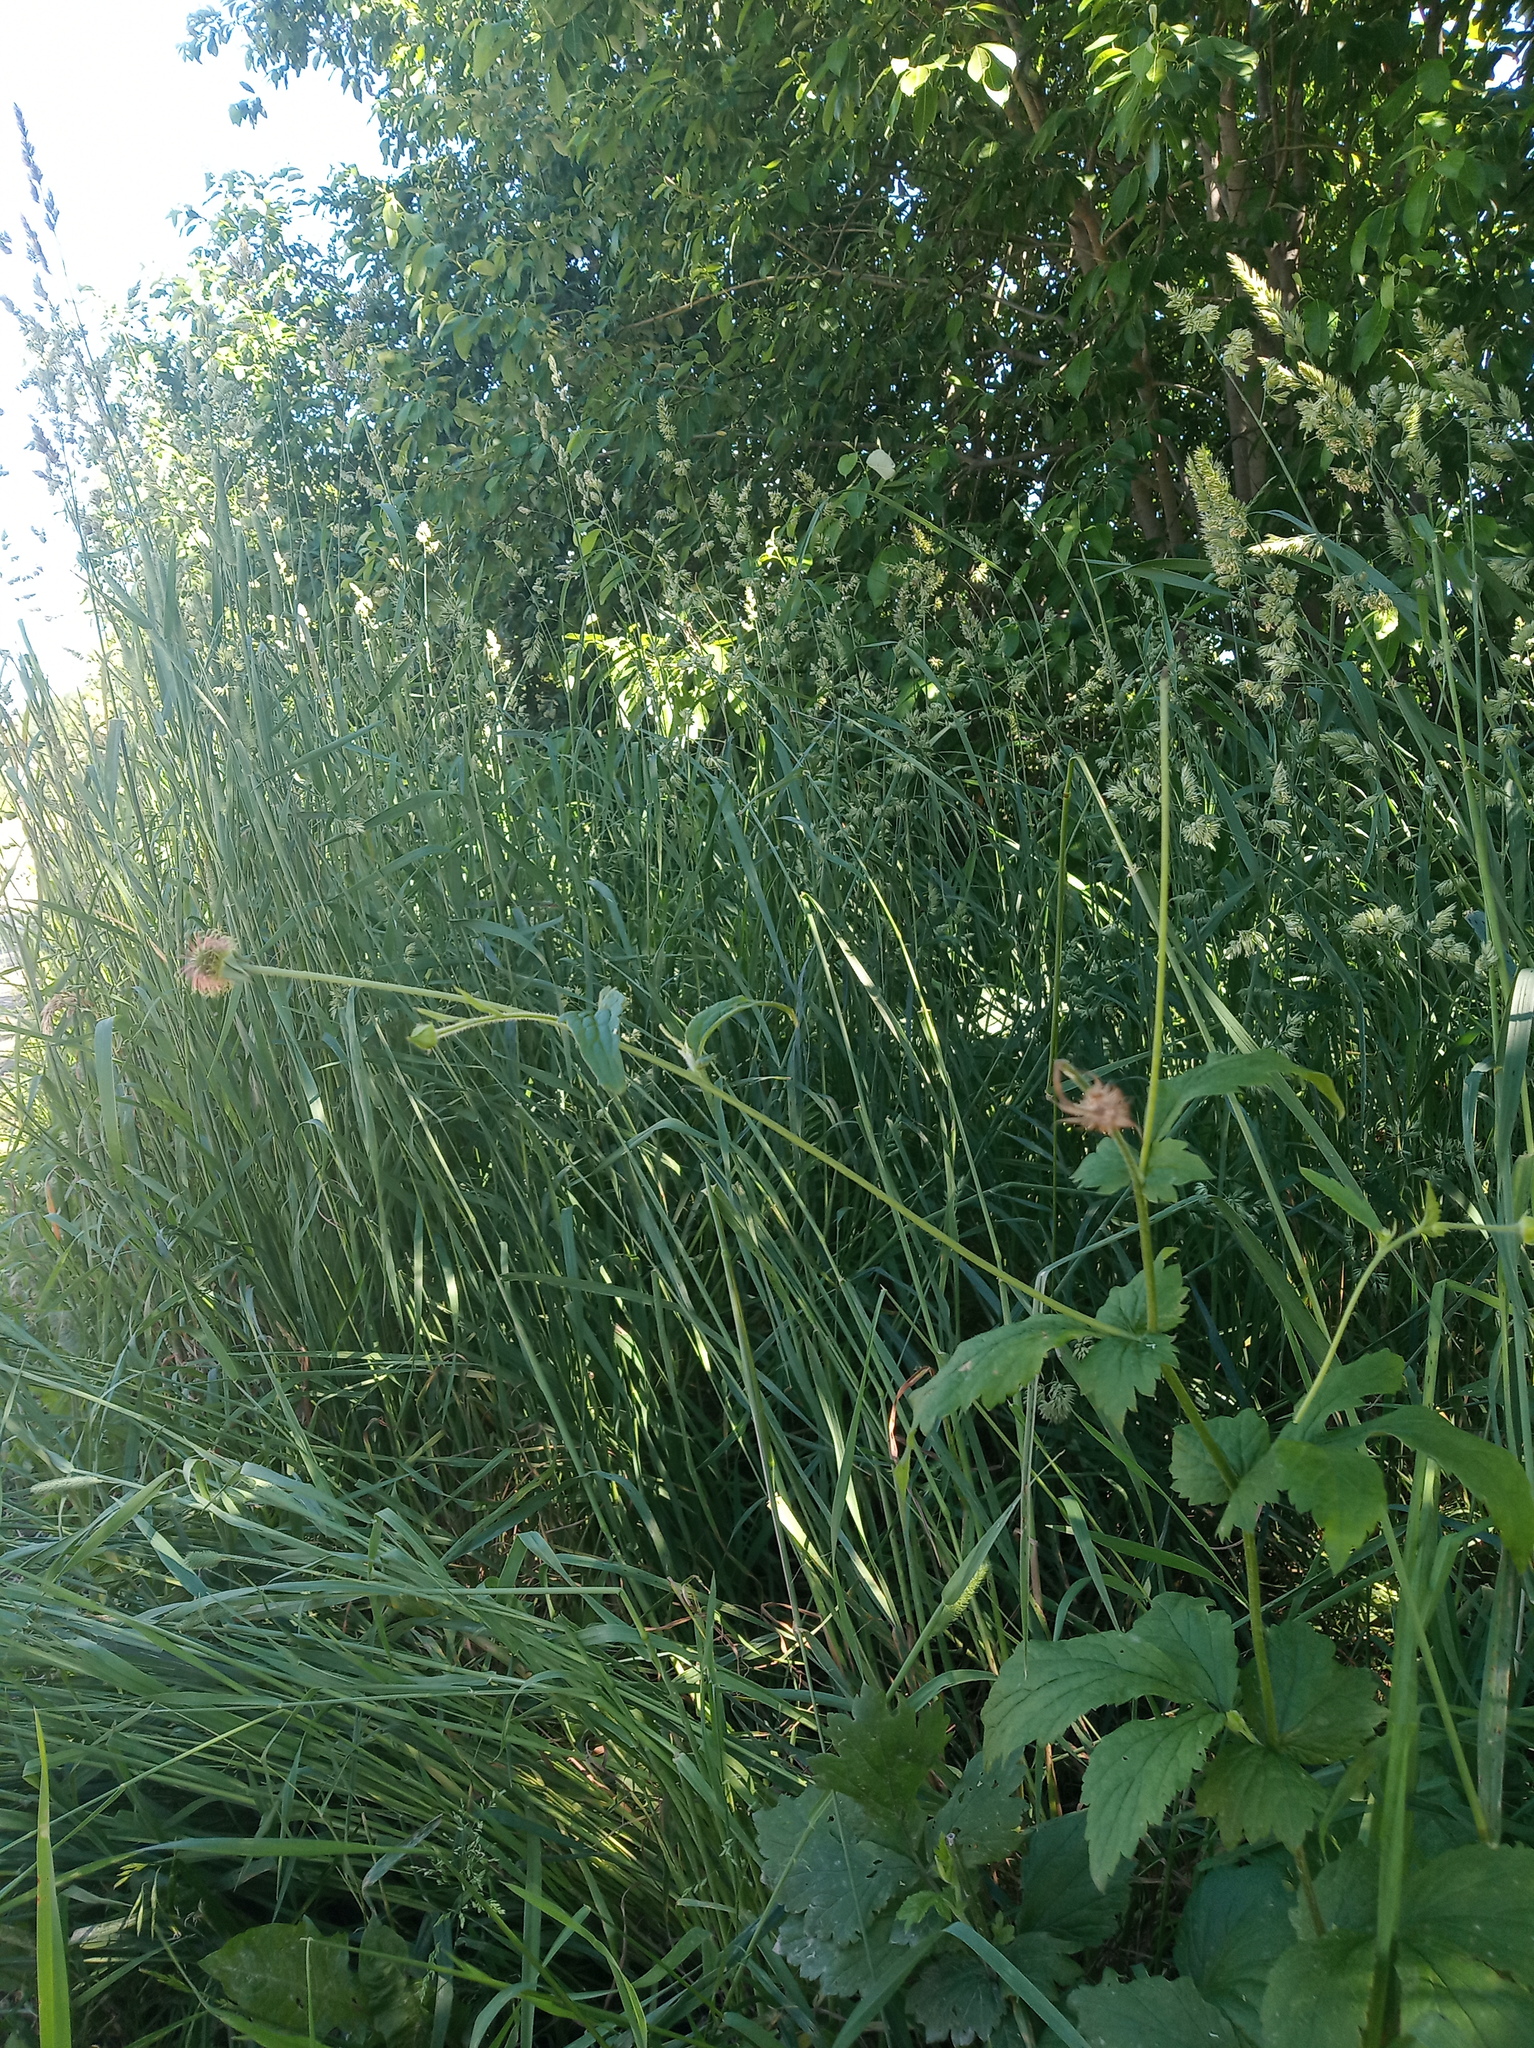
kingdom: Plantae
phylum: Tracheophyta
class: Magnoliopsida
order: Rosales
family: Rosaceae
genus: Geum
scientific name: Geum urbanum
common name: Wood avens
